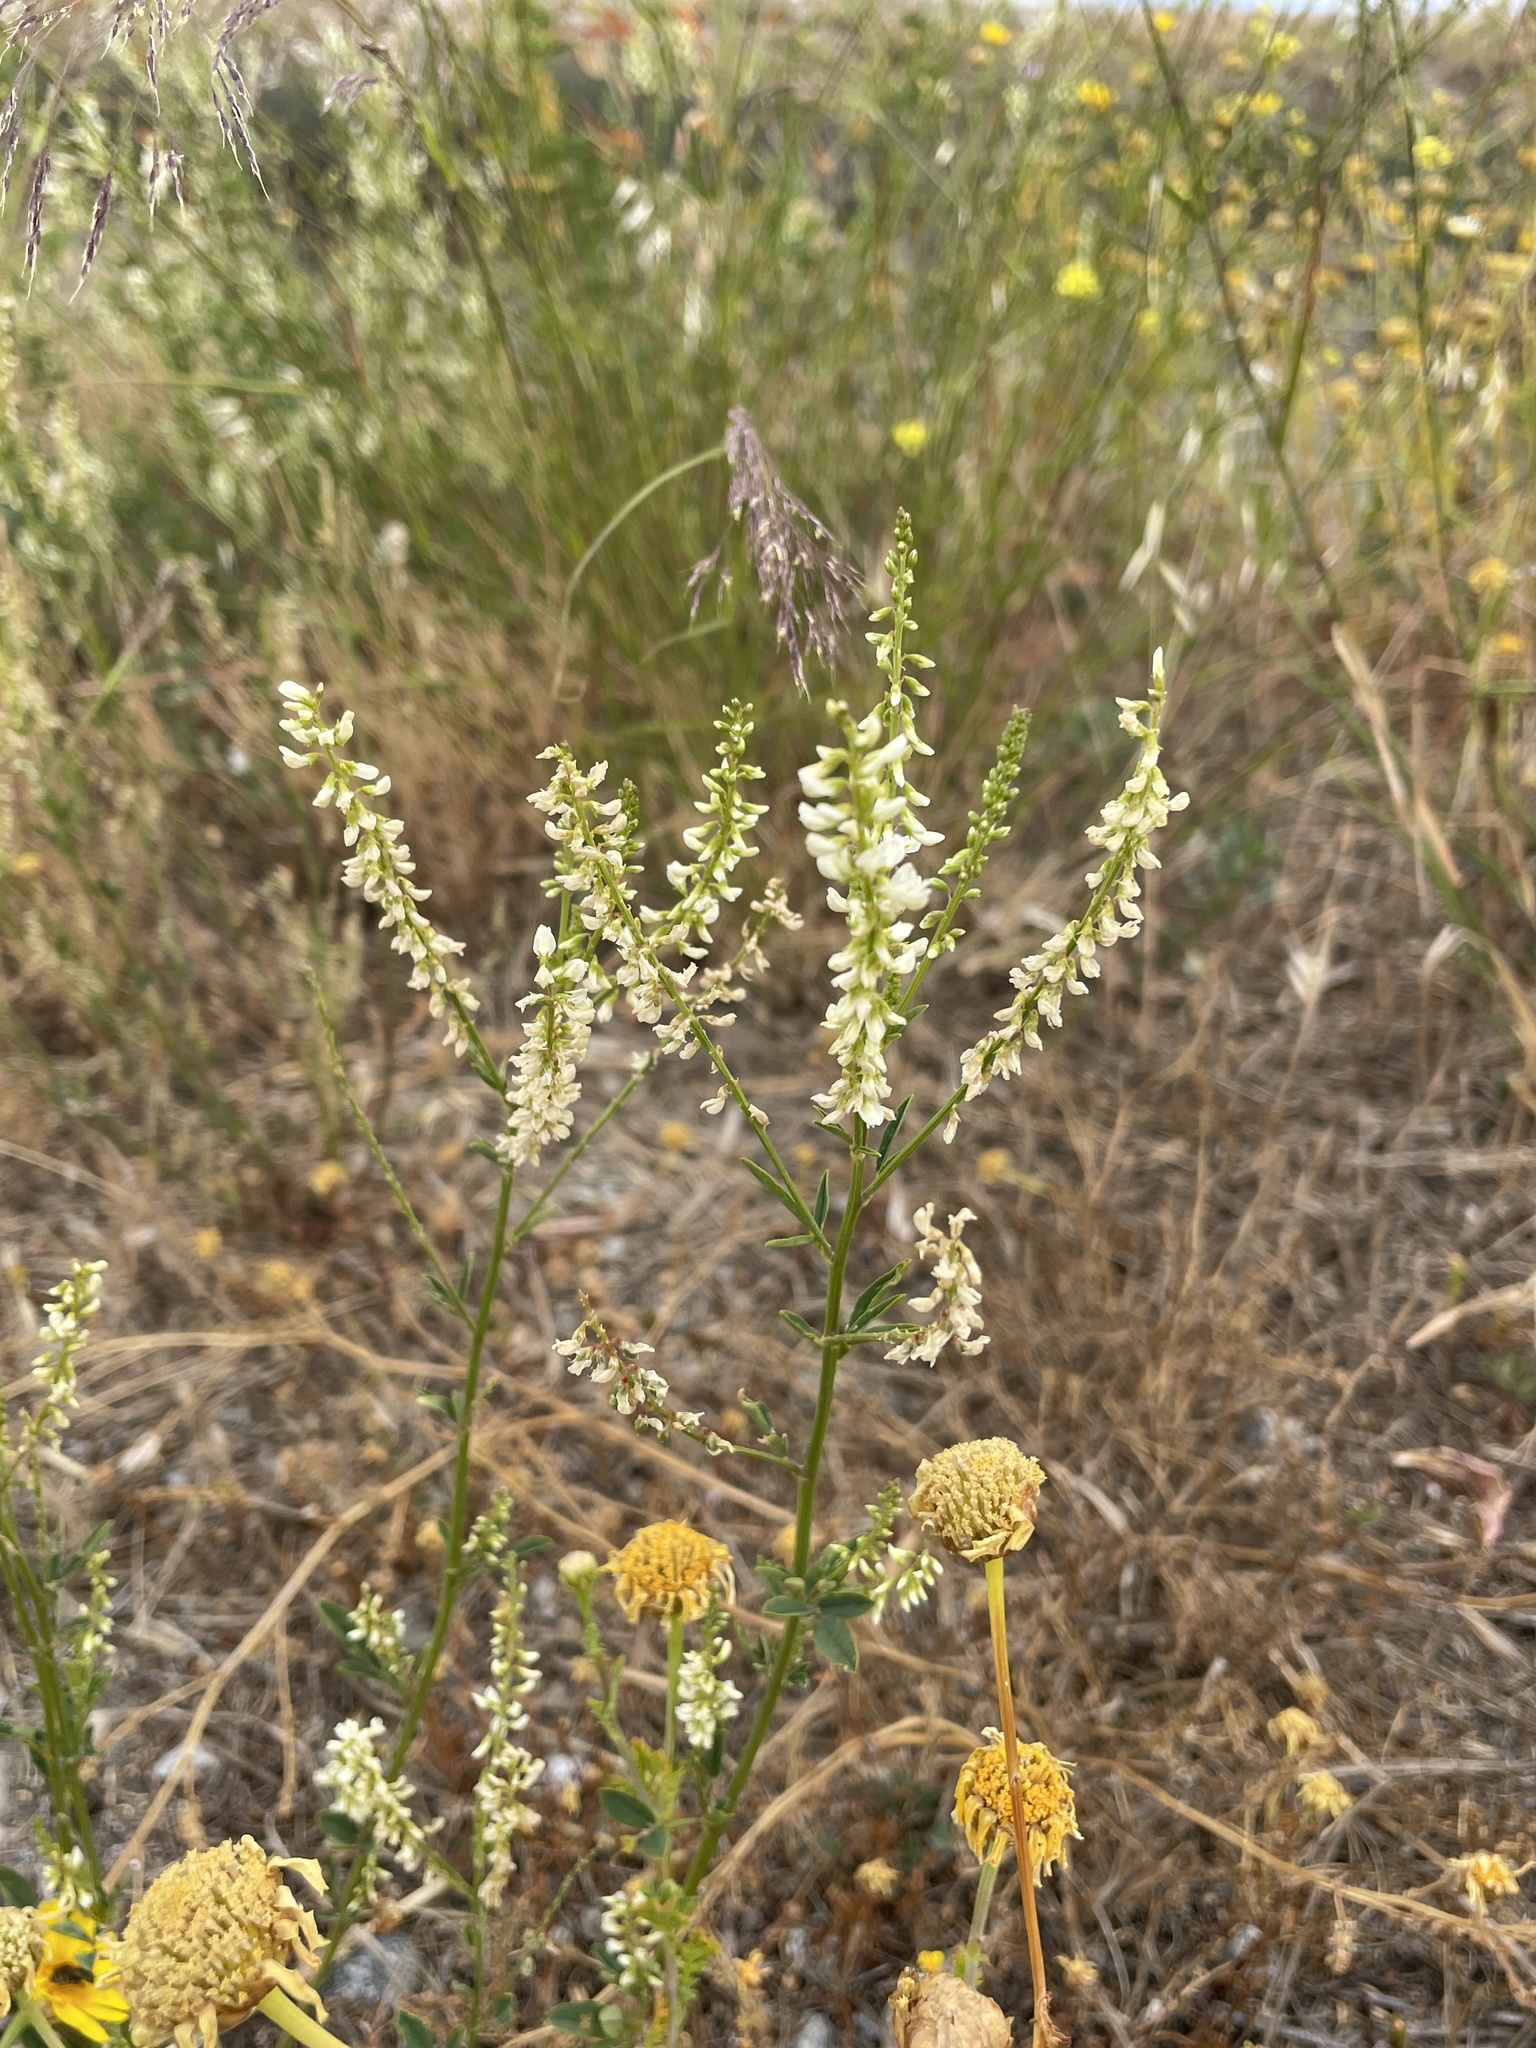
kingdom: Plantae
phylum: Tracheophyta
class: Magnoliopsida
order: Fabales
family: Fabaceae
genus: Melilotus
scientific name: Melilotus albus
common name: White melilot
